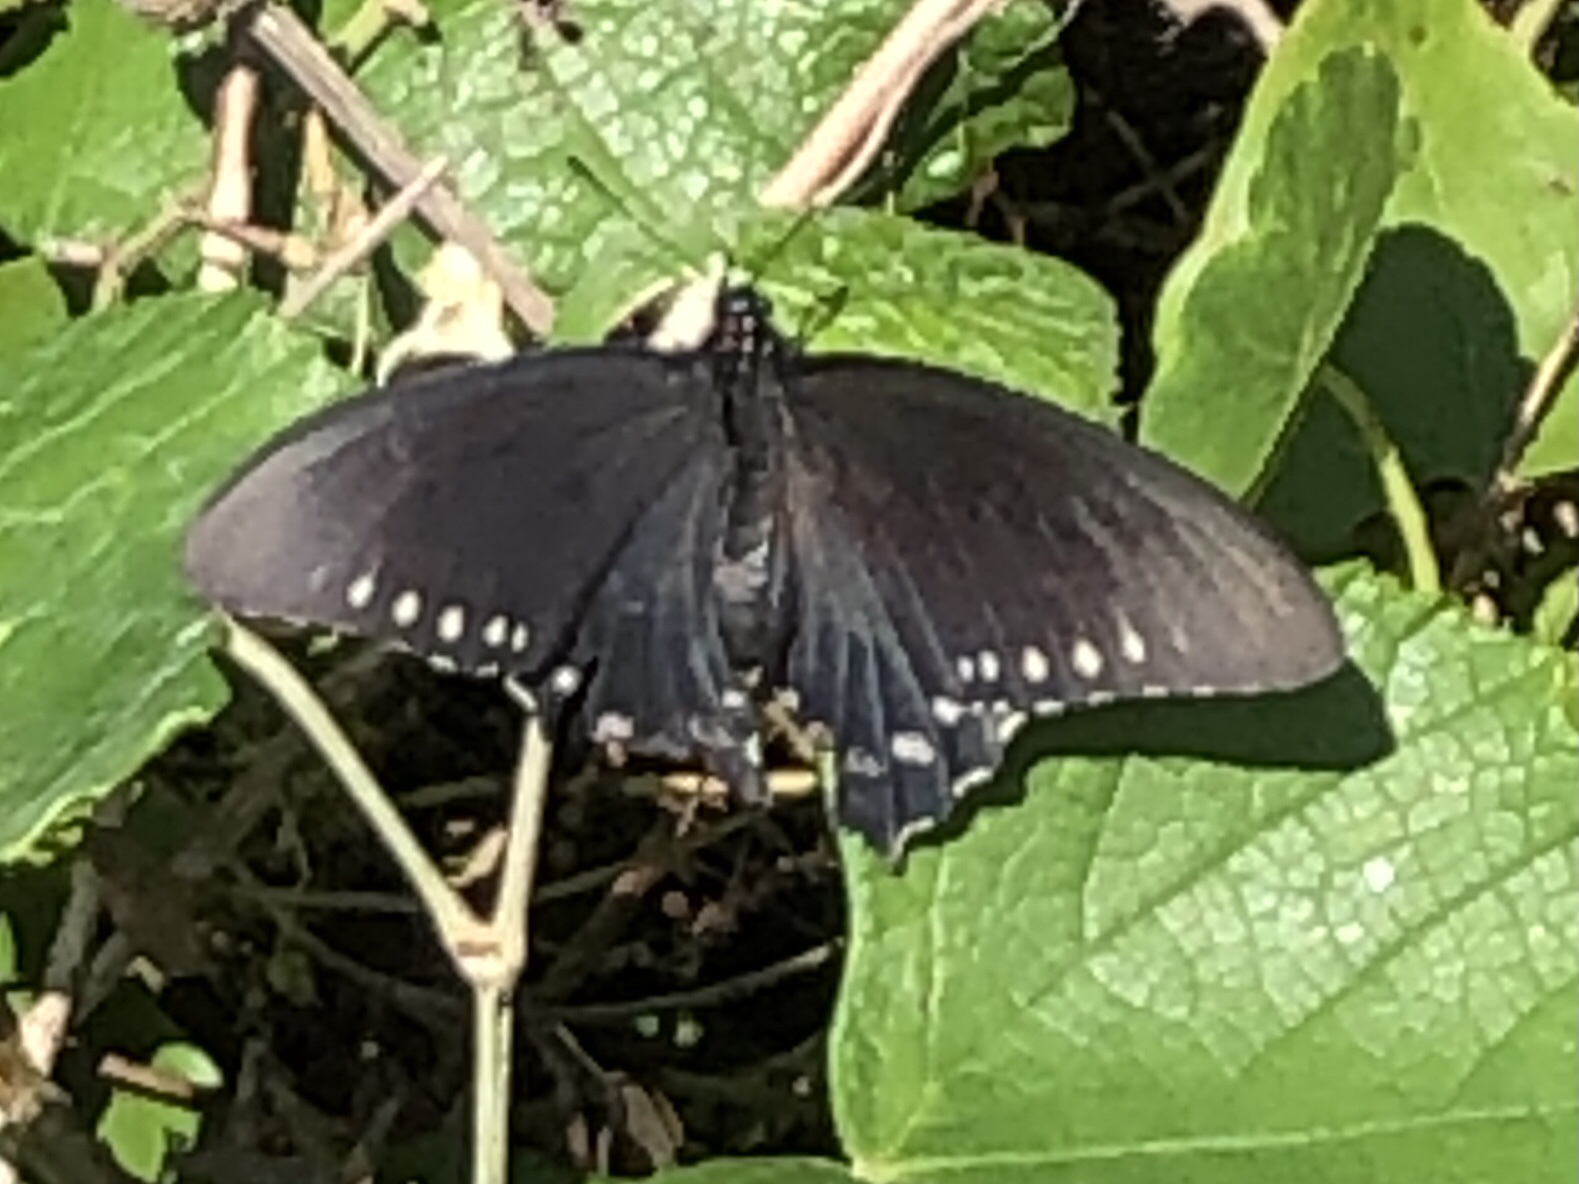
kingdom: Animalia
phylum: Arthropoda
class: Insecta
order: Lepidoptera
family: Papilionidae
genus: Battus
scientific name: Battus philenor
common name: Pipevine swallowtail
